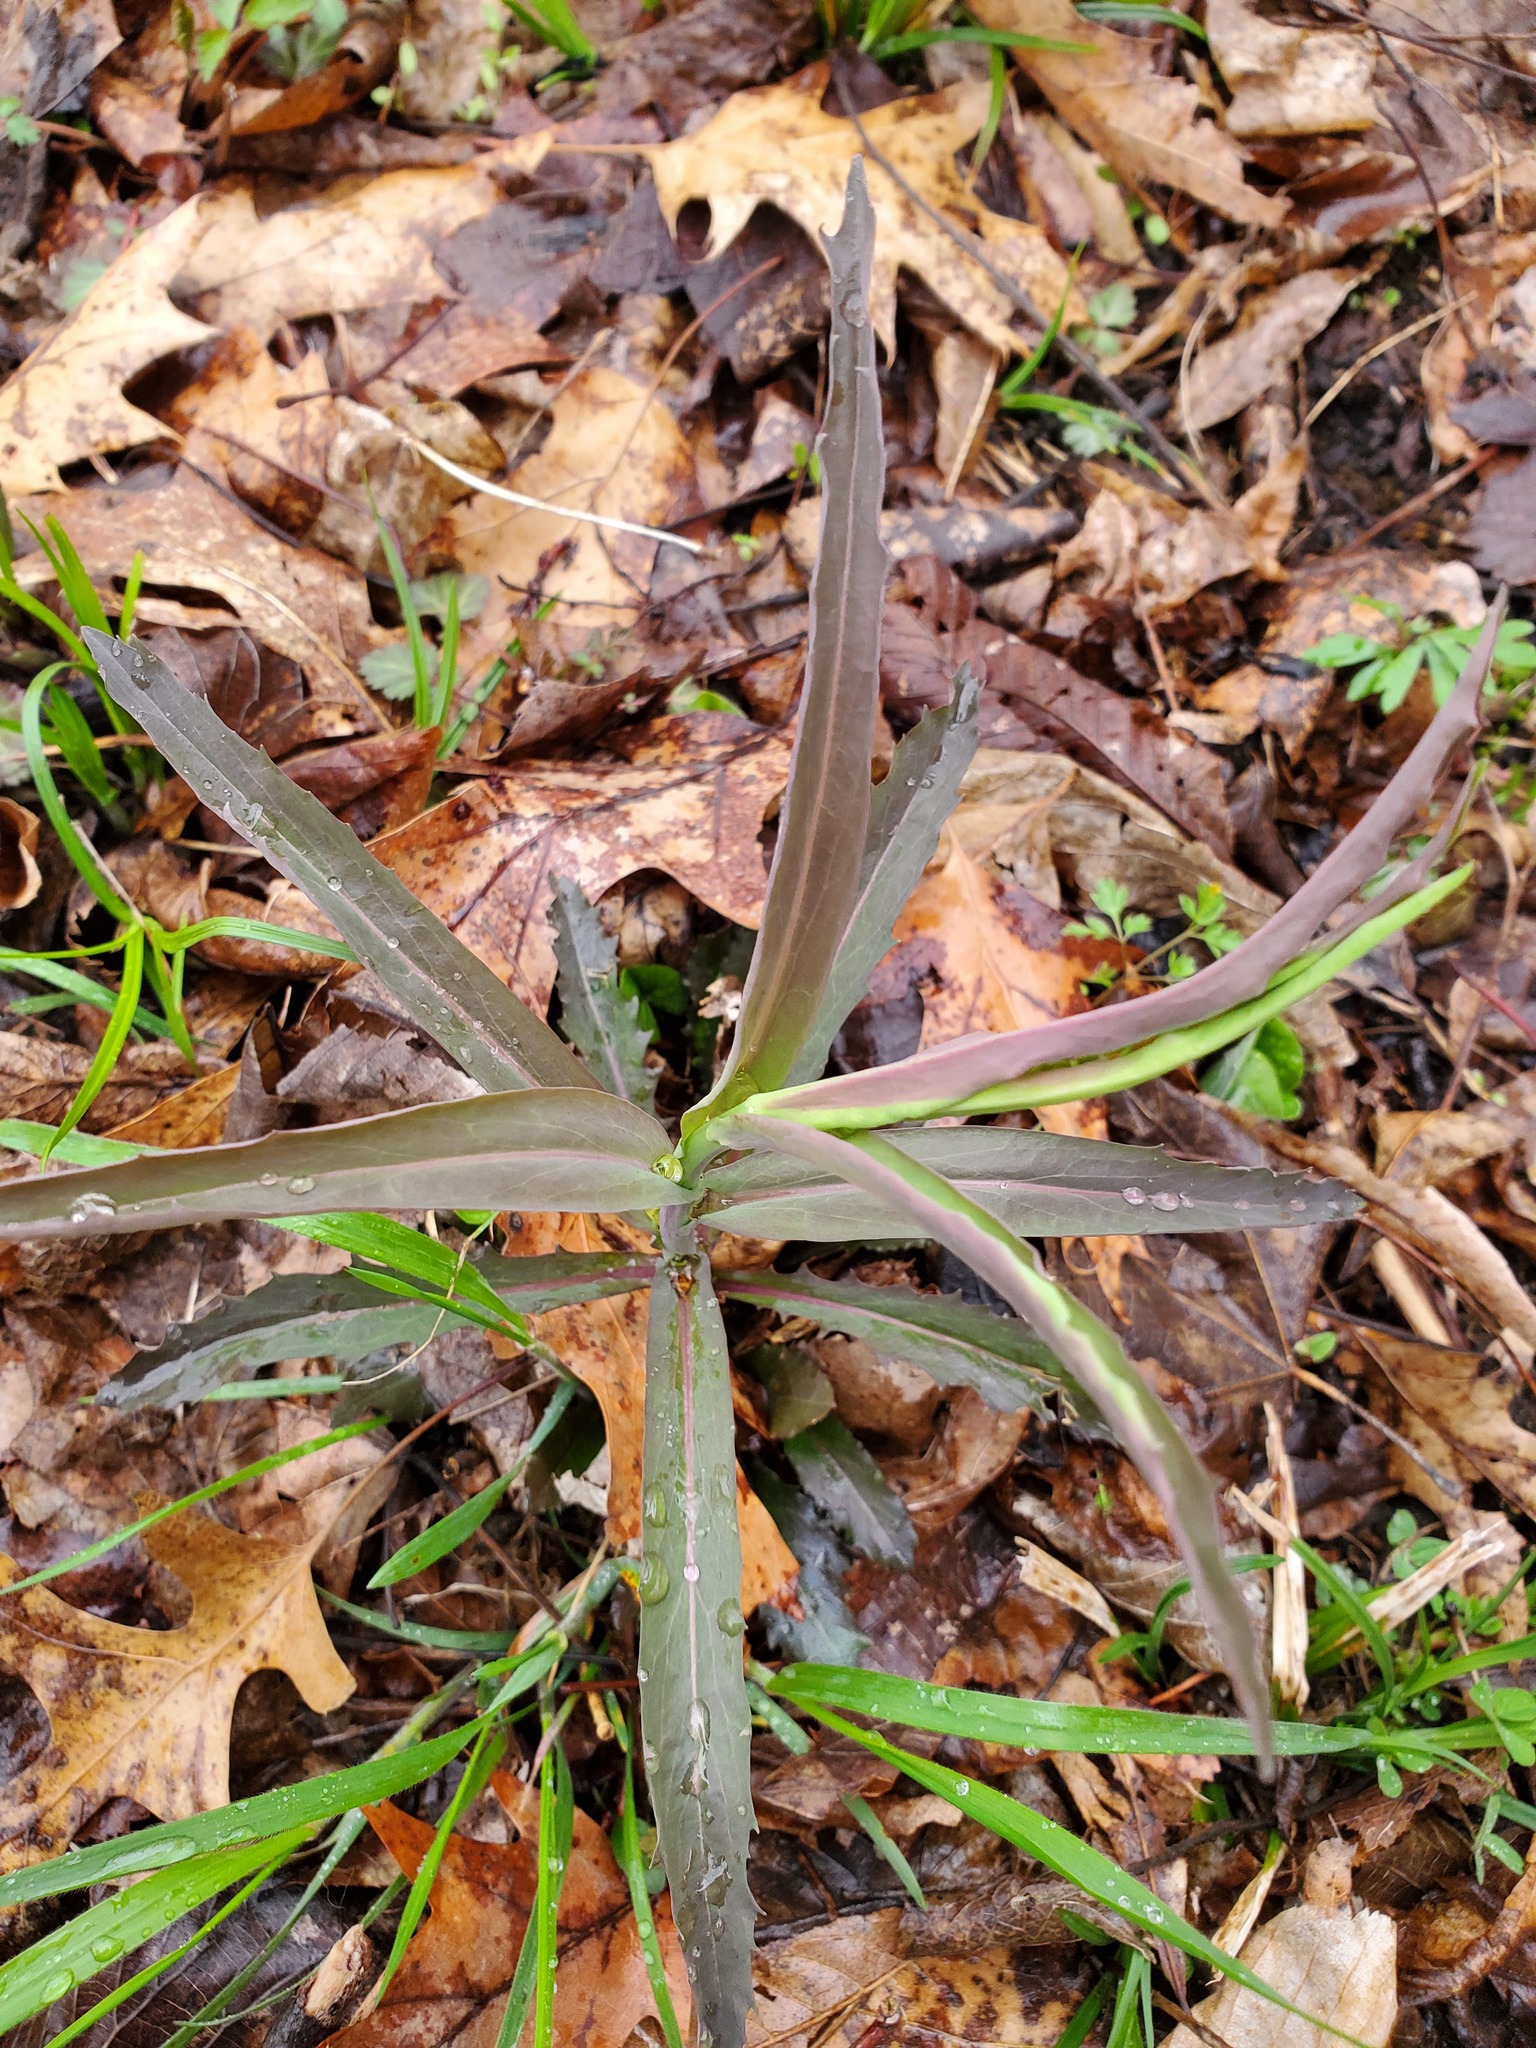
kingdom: Plantae
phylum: Tracheophyta
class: Magnoliopsida
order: Brassicales
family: Brassicaceae
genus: Borodinia
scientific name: Borodinia laevigata
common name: Smooth rockcress
